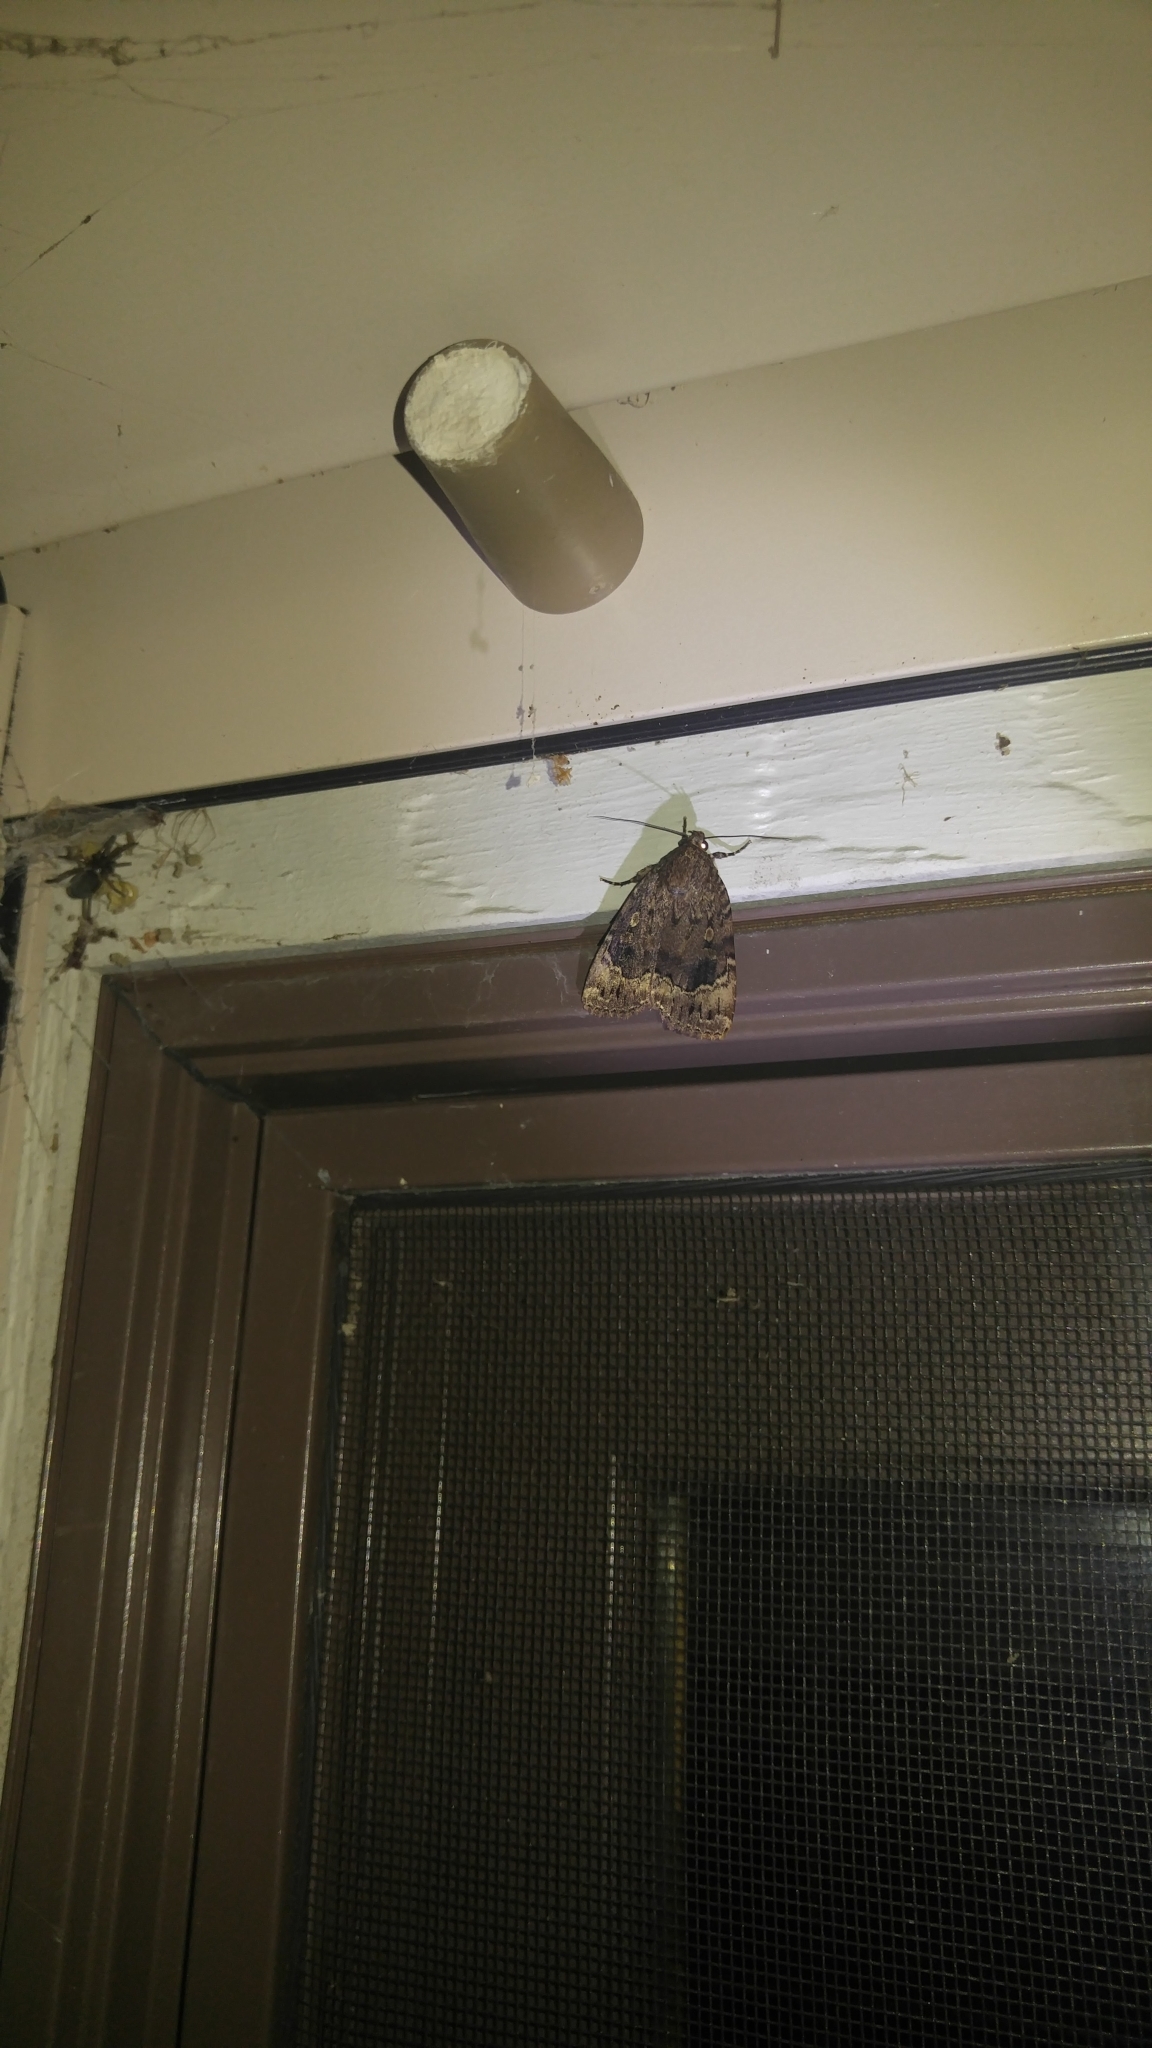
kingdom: Animalia
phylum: Arthropoda
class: Insecta
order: Lepidoptera
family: Noctuidae
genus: Amphipyra
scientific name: Amphipyra pyramidoides
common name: American copper underwing
